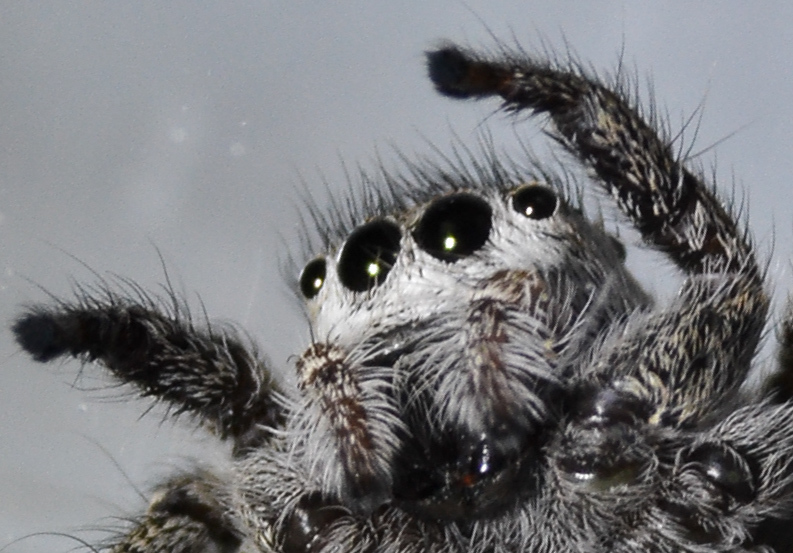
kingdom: Animalia
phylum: Arthropoda
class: Arachnida
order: Araneae
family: Salticidae
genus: Habronattus
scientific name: Habronattus
